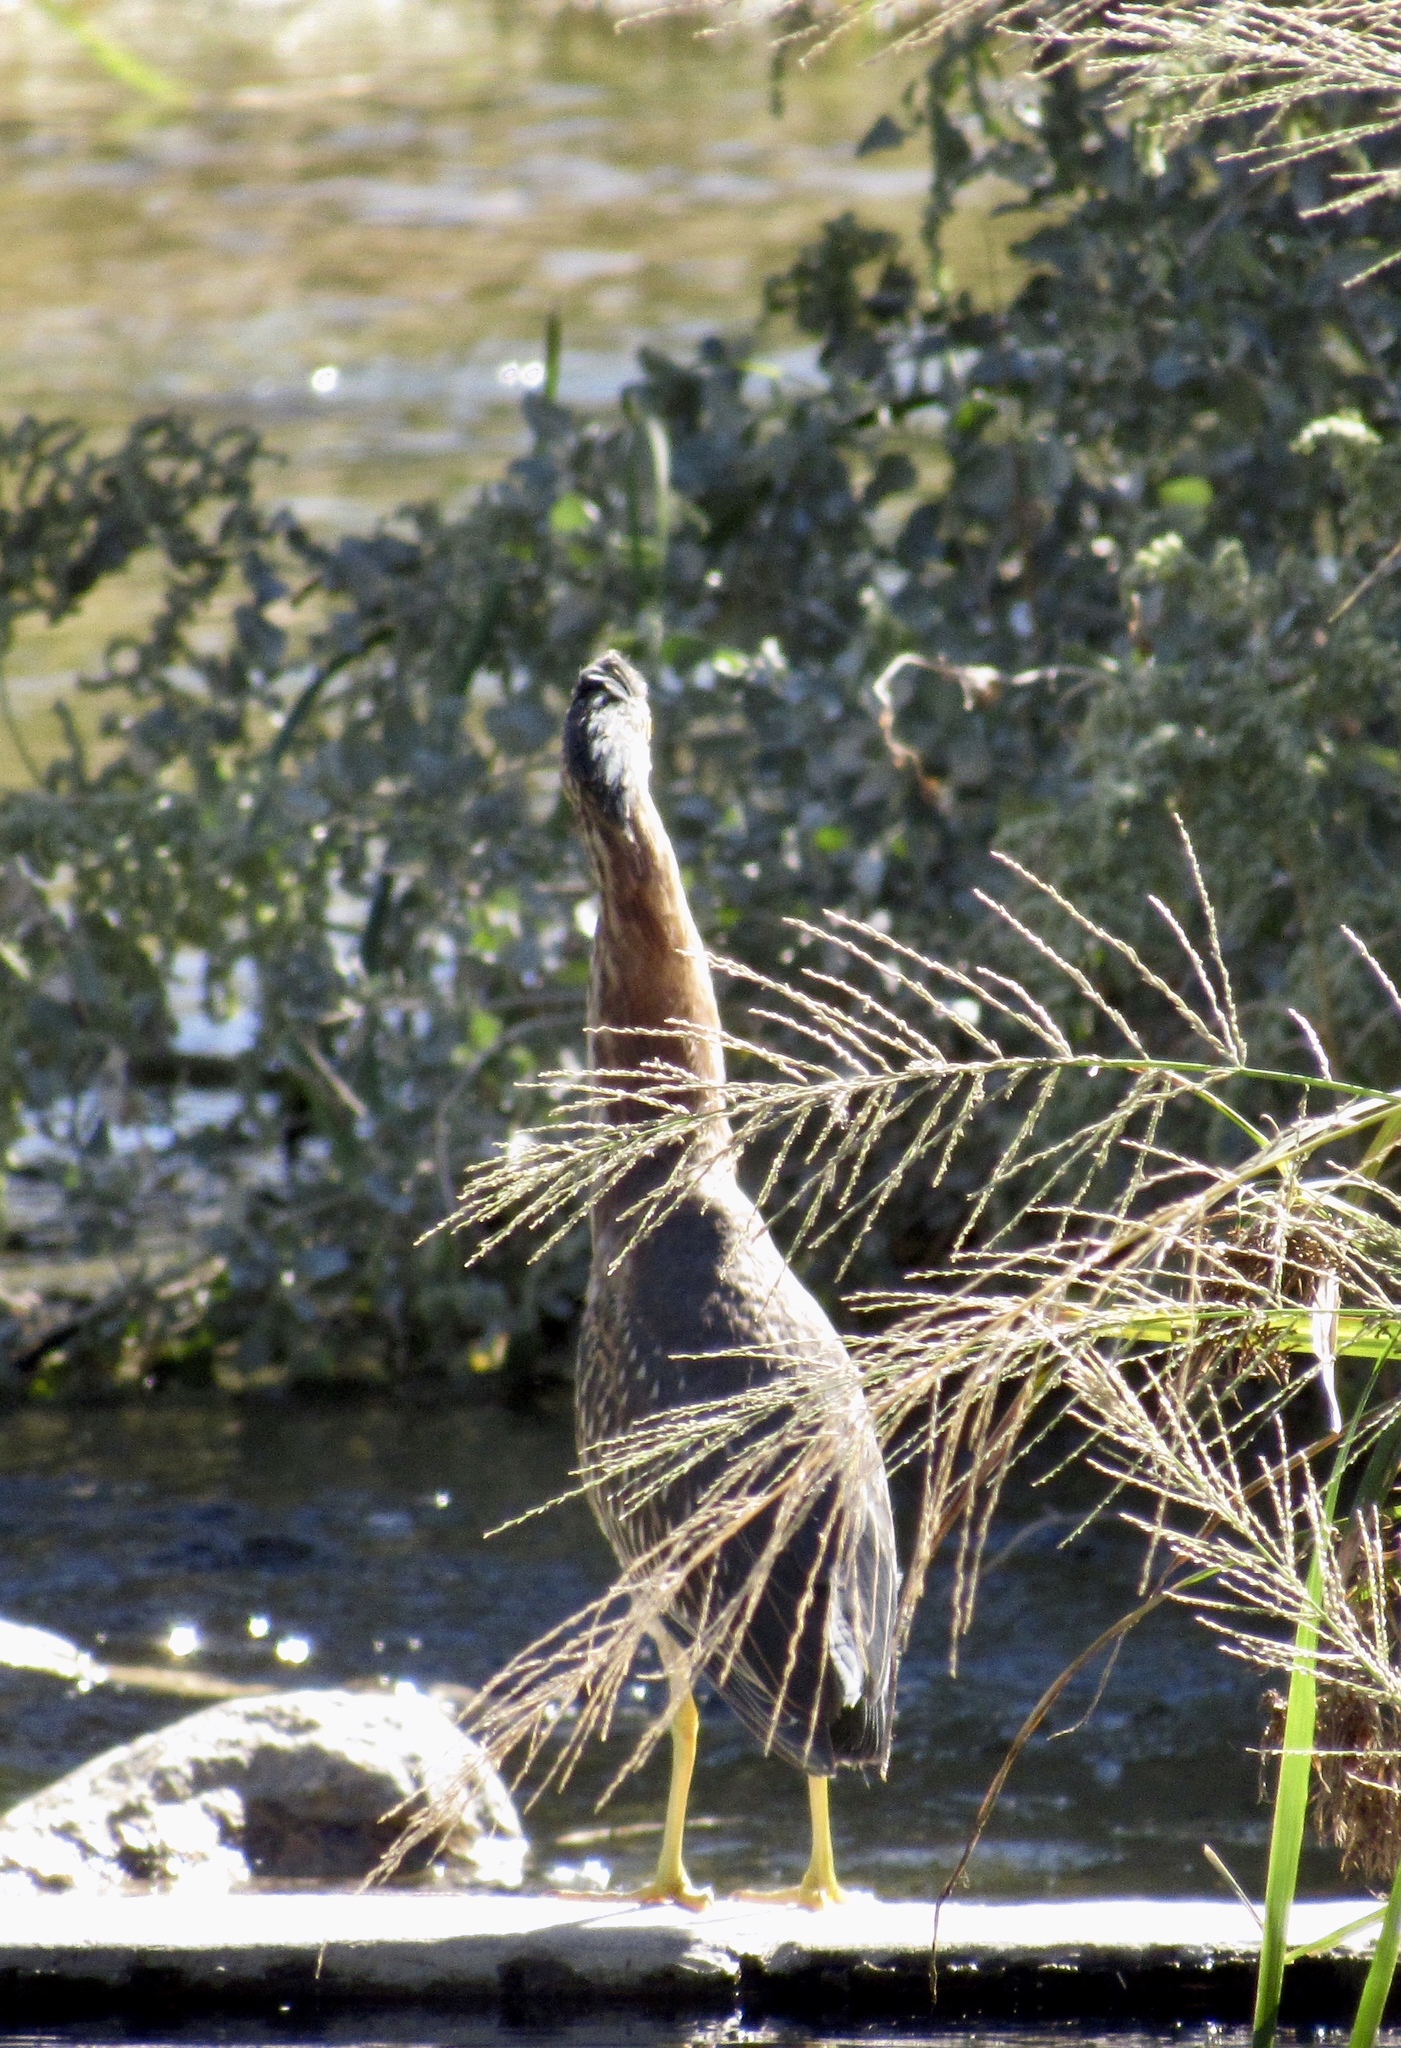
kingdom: Animalia
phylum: Chordata
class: Aves
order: Pelecaniformes
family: Ardeidae
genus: Butorides
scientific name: Butorides virescens
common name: Green heron
